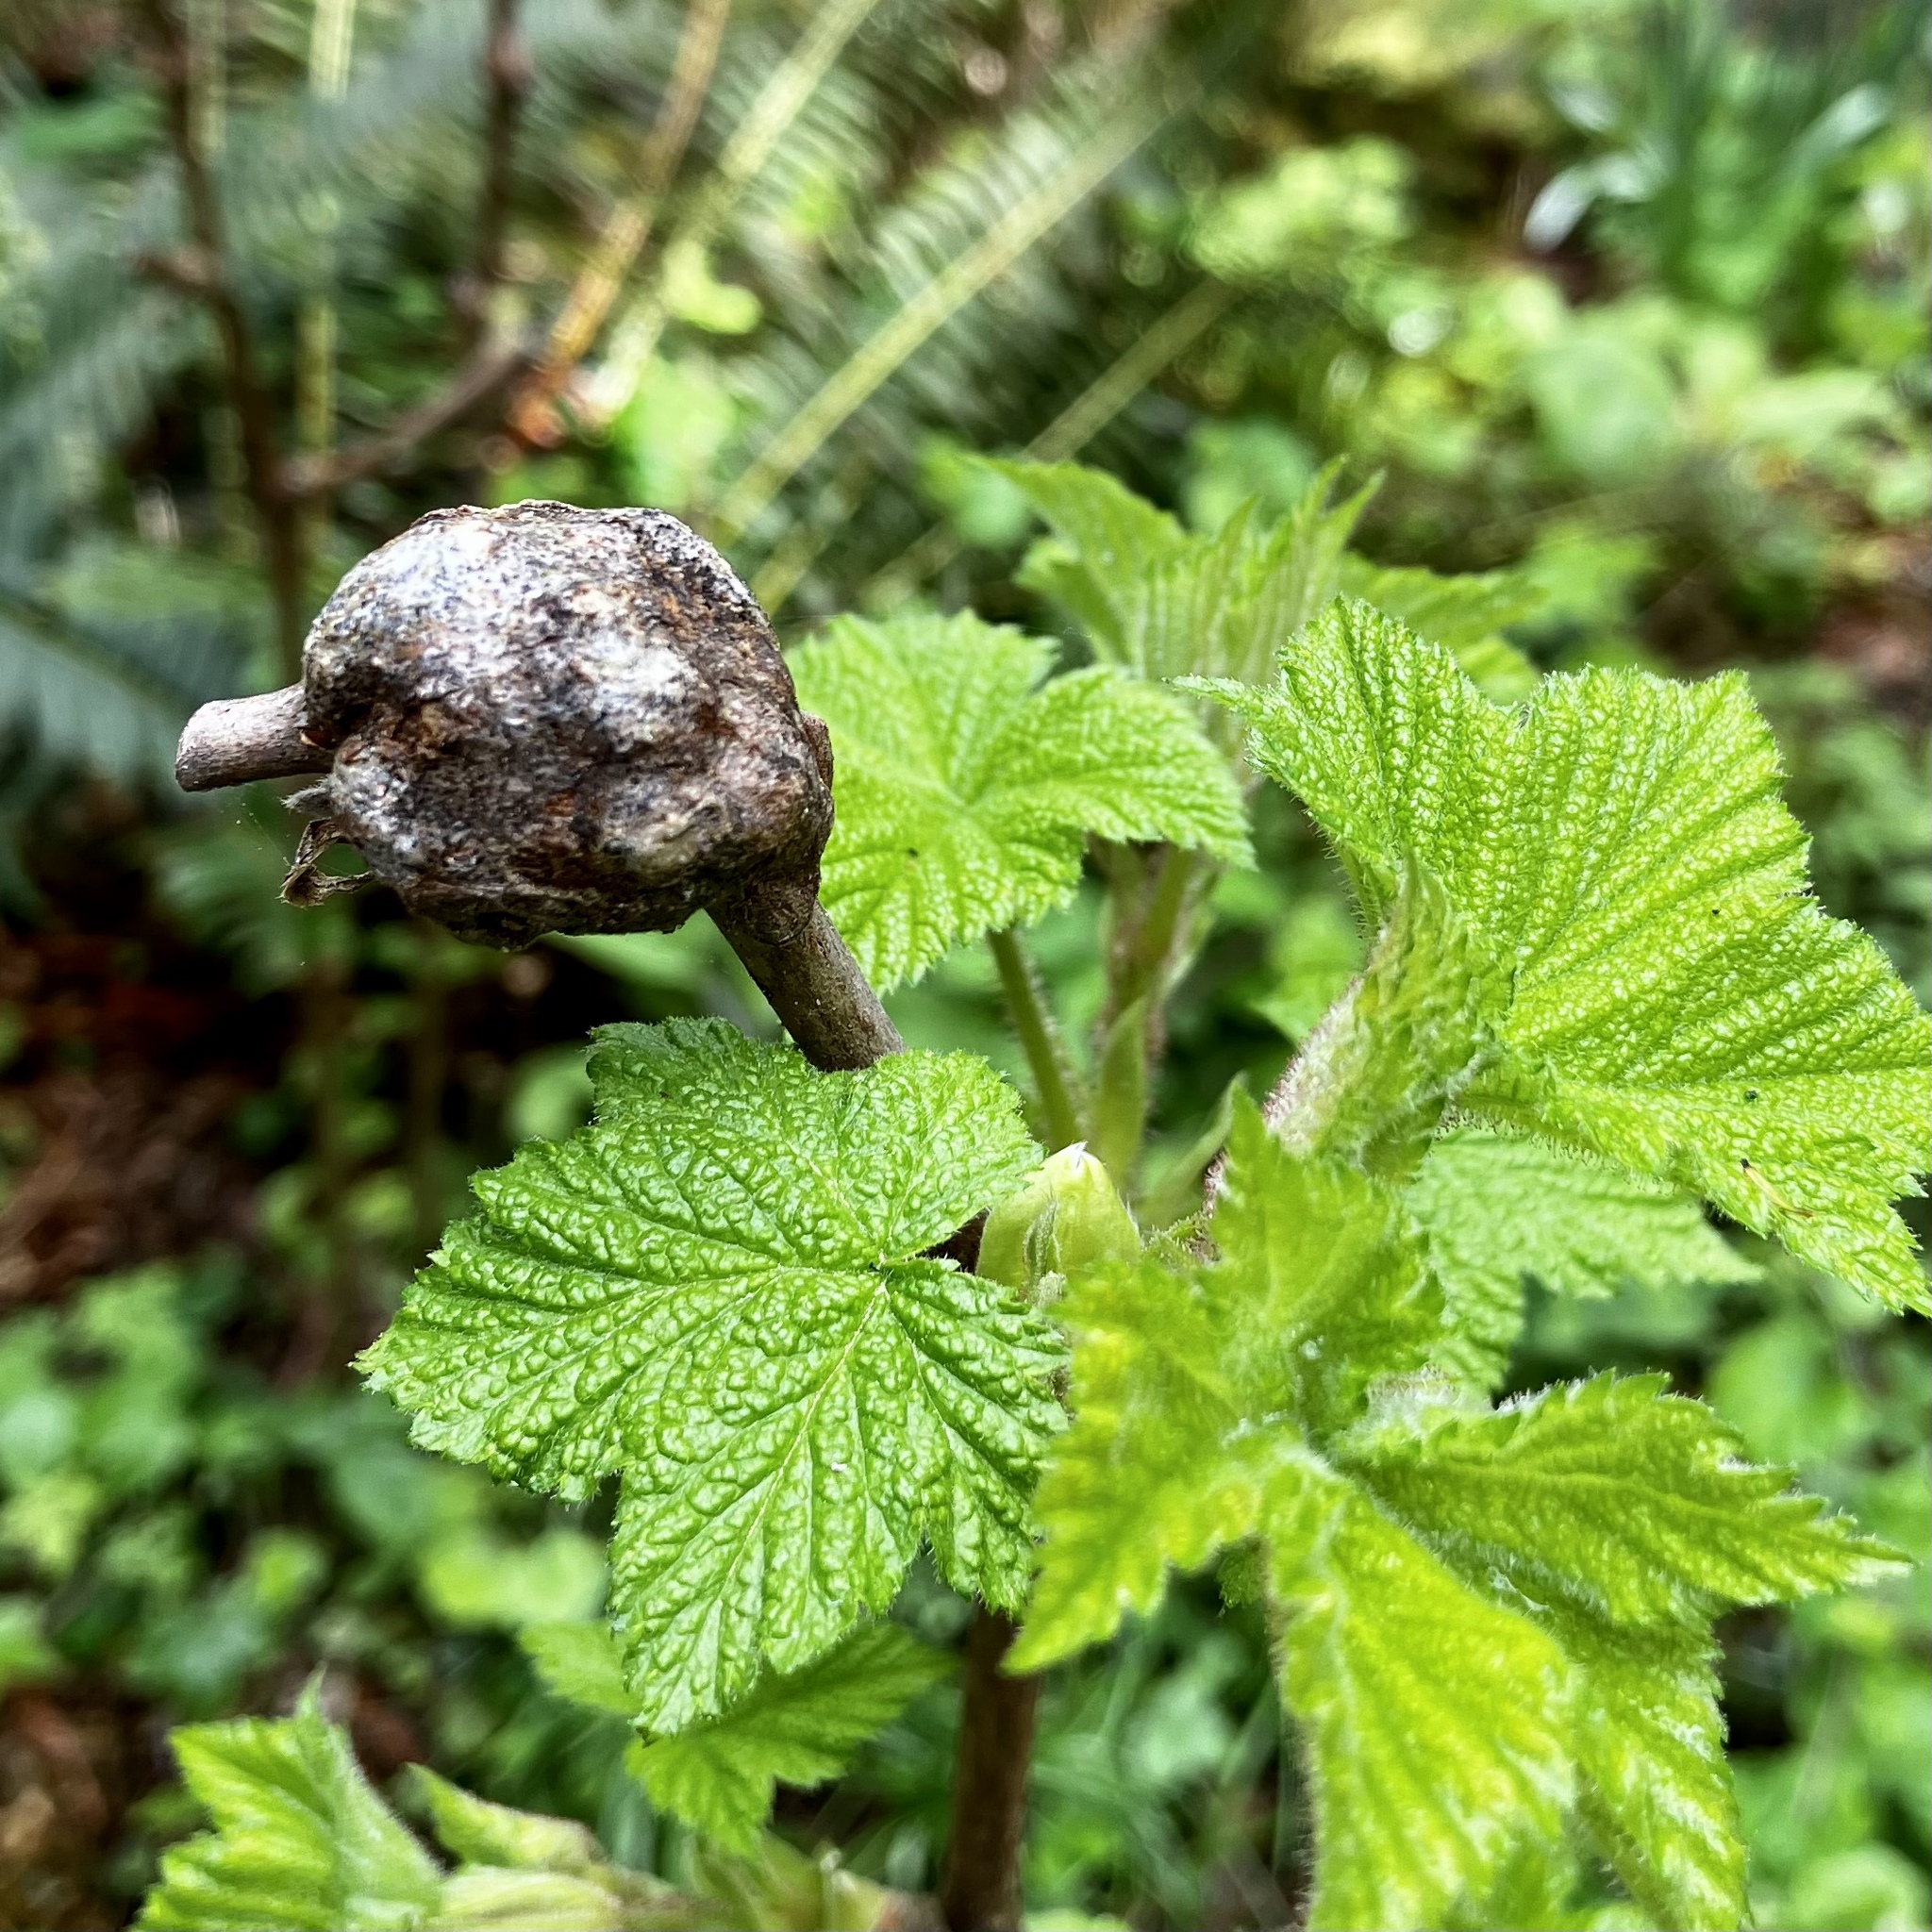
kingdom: Animalia
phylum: Arthropoda
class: Insecta
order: Hymenoptera
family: Cynipidae
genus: Diastrophus
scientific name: Diastrophus
